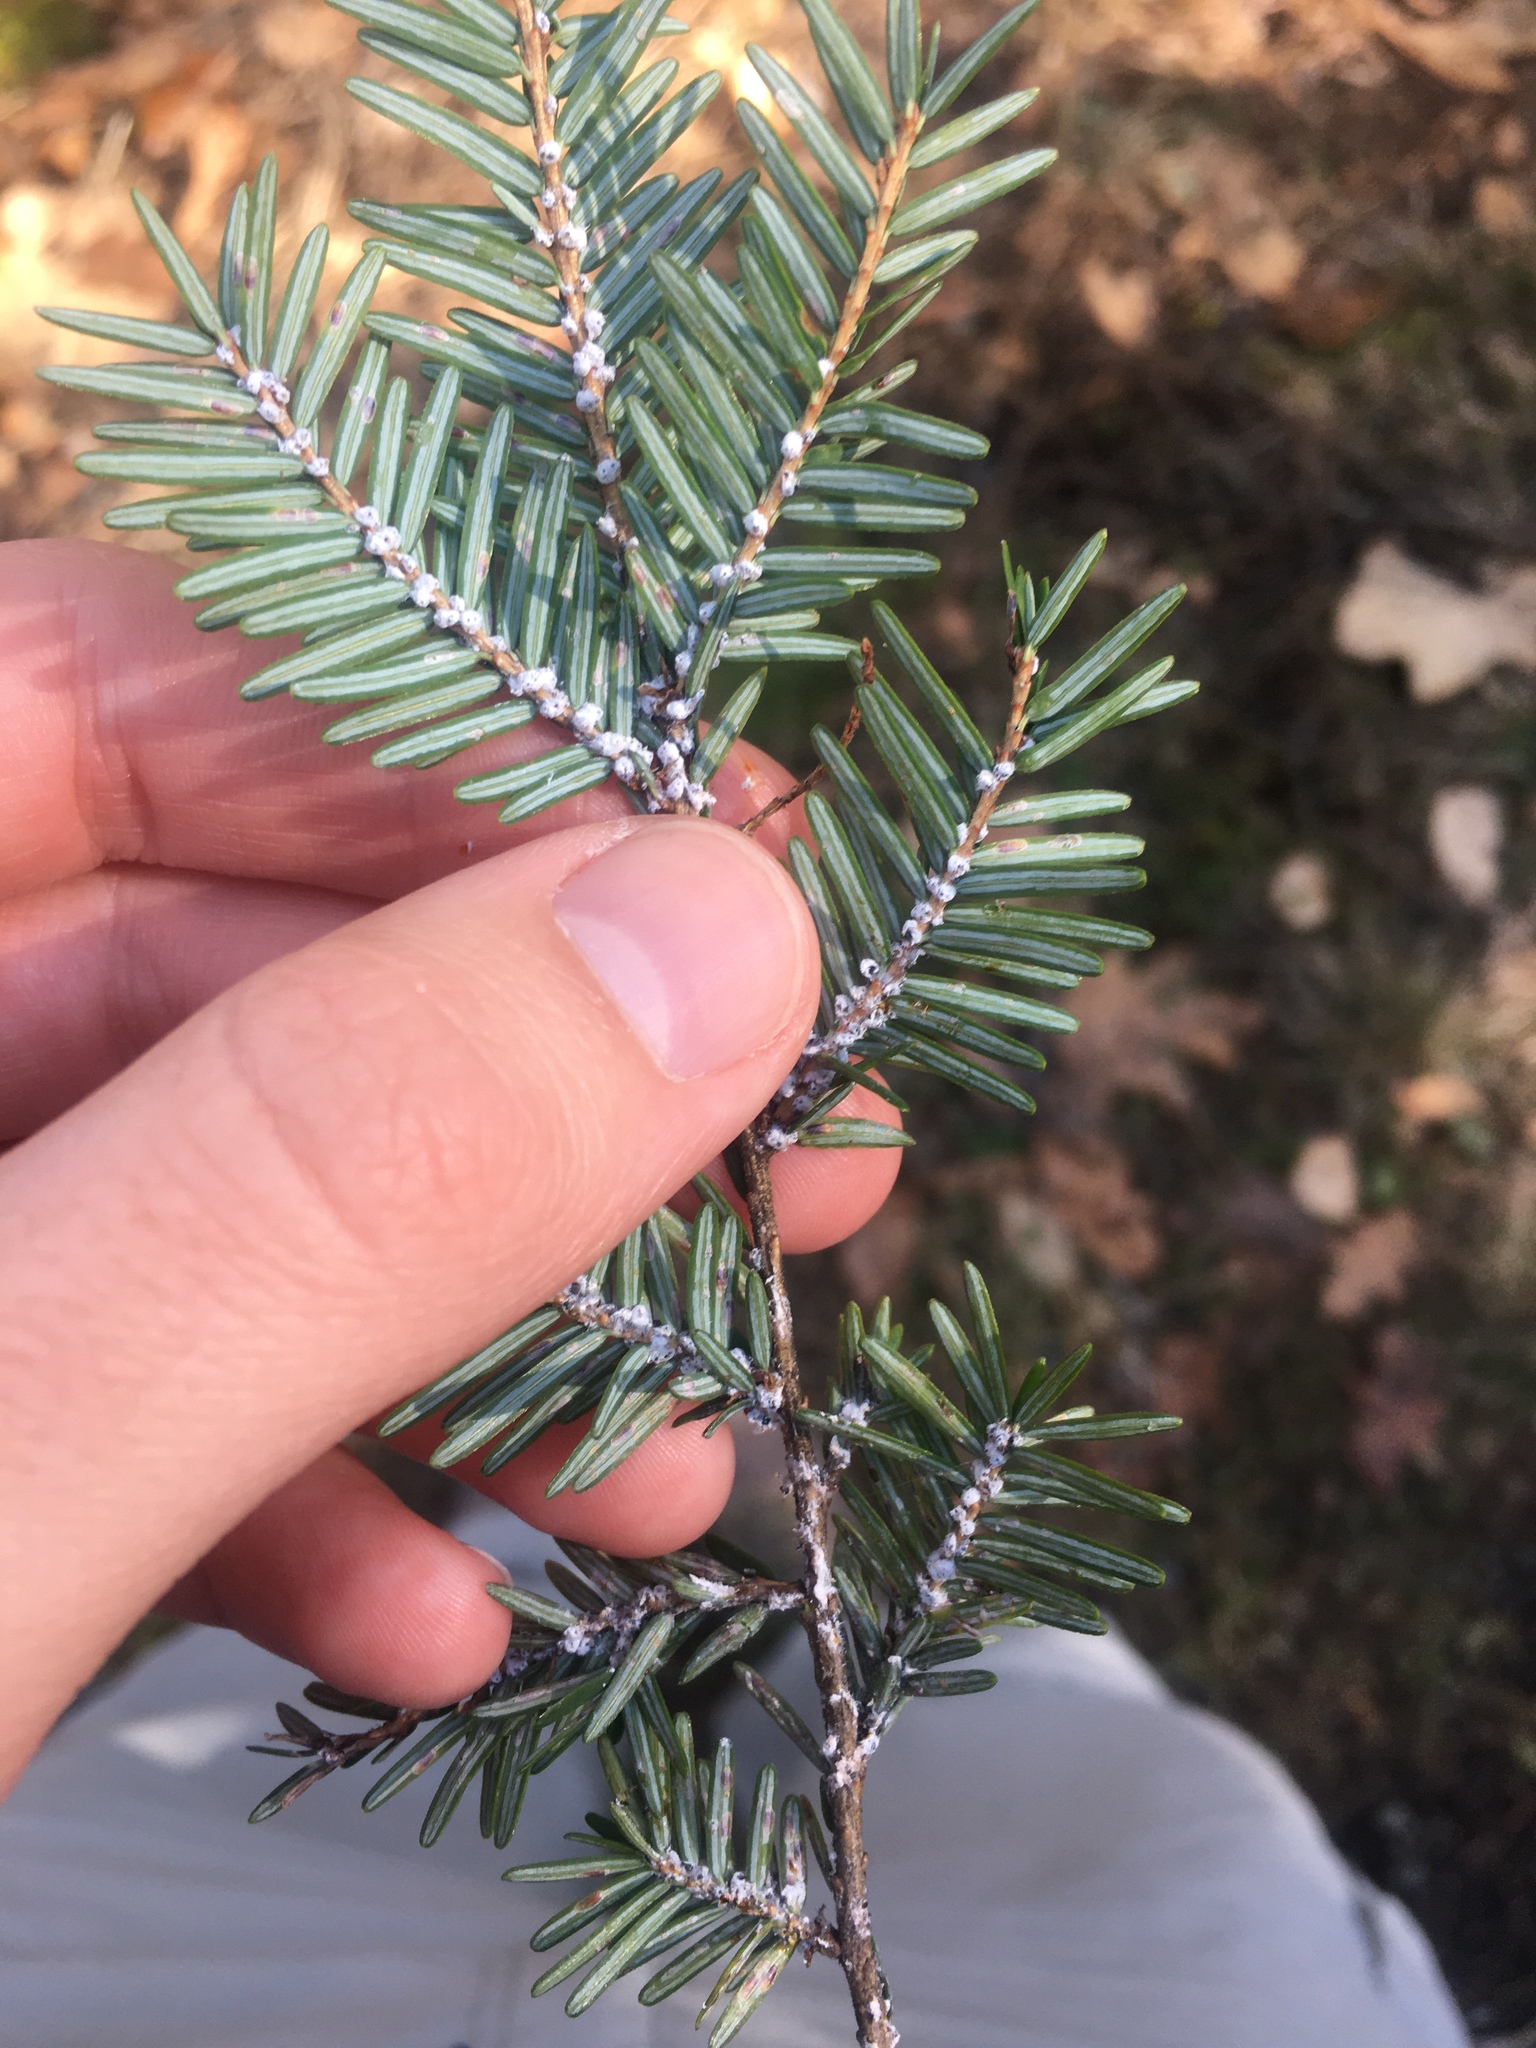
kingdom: Animalia
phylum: Arthropoda
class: Insecta
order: Hemiptera
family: Adelgidae
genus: Adelges
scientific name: Adelges tsugae
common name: Hemlock woolly adelgid
